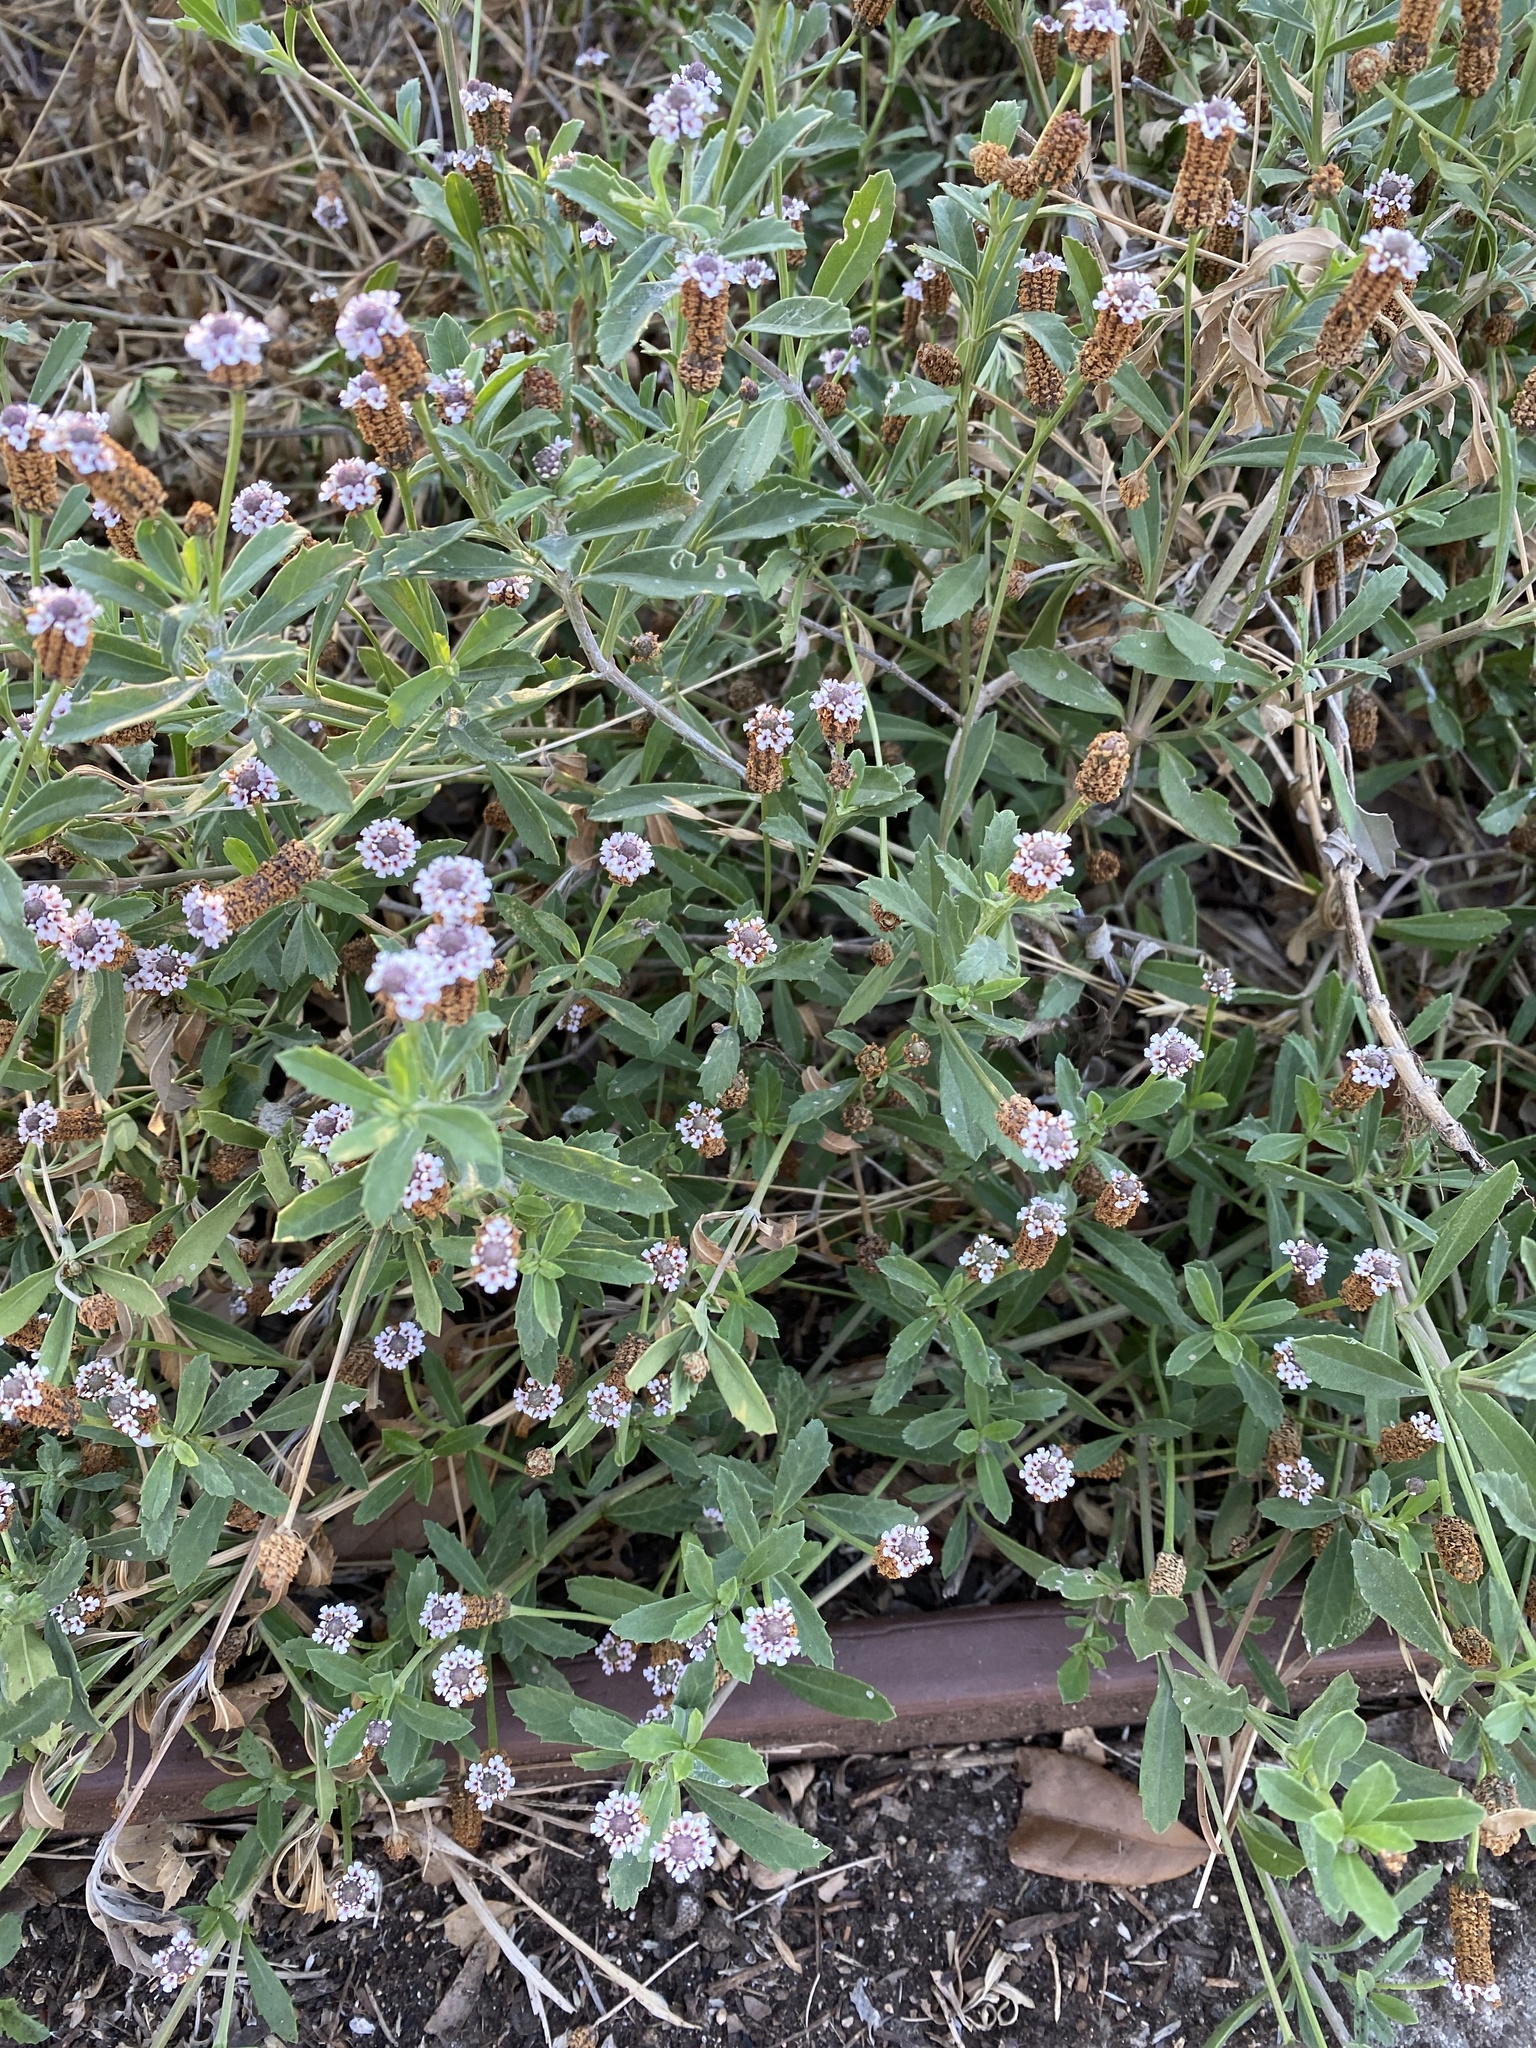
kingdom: Plantae
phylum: Tracheophyta
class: Magnoliopsida
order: Lamiales
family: Verbenaceae
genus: Phyla
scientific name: Phyla nodiflora
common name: Frogfruit
